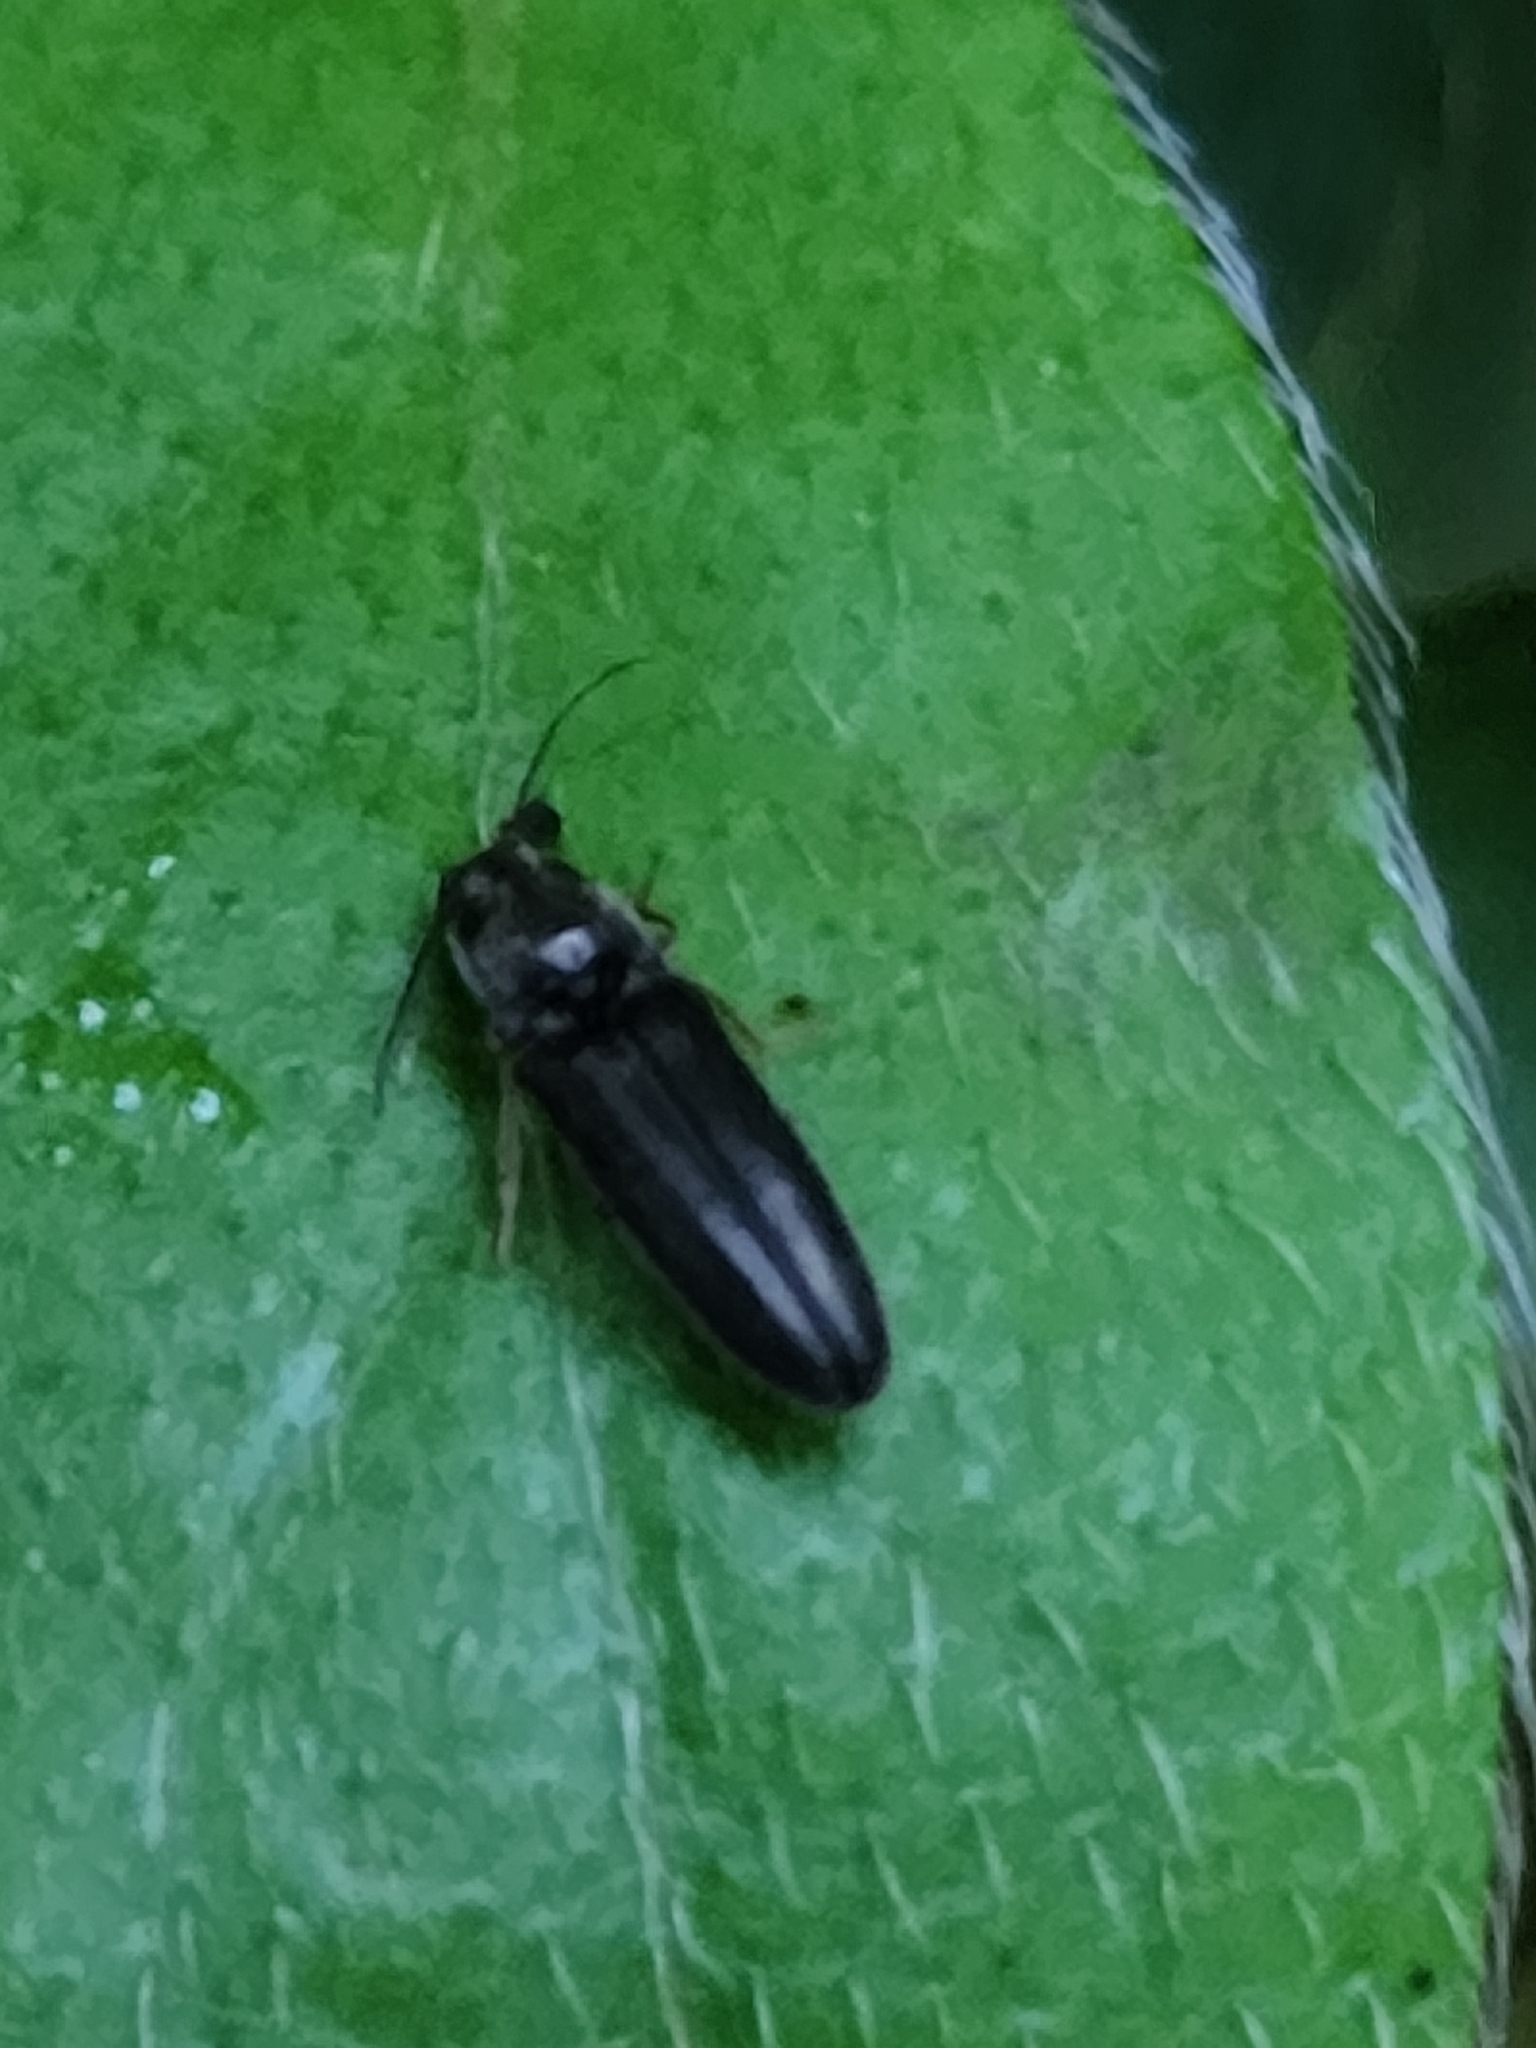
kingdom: Animalia
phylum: Arthropoda
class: Insecta
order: Coleoptera
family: Elateridae
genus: Limonius
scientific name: Limonius quercinus
